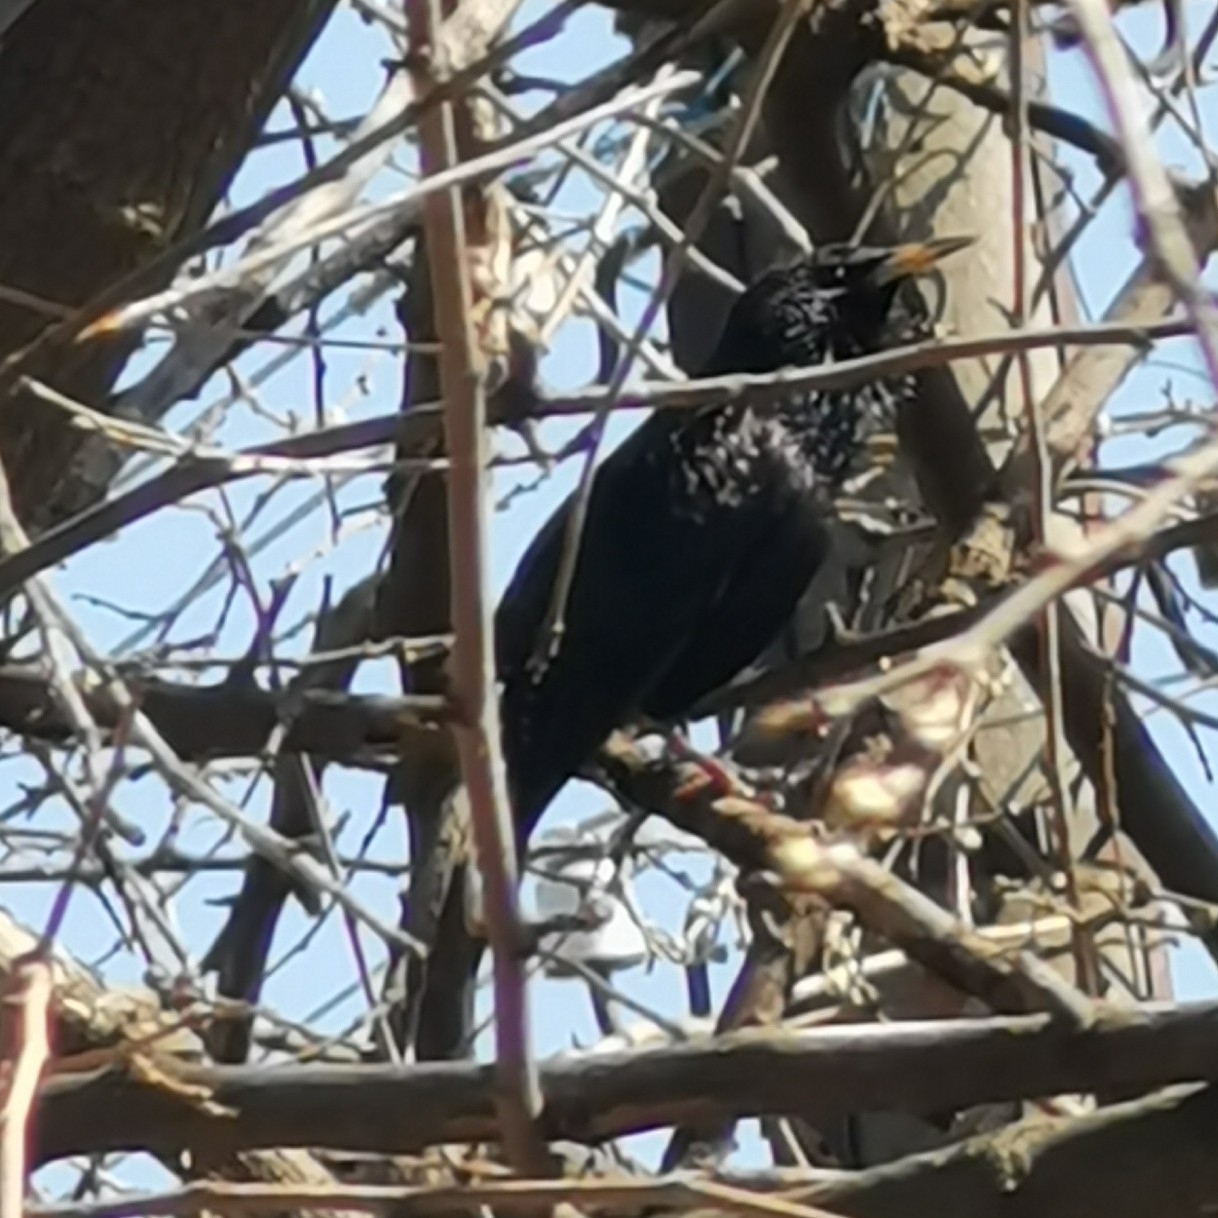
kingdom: Animalia
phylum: Chordata
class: Aves
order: Passeriformes
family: Sturnidae
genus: Sturnus
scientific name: Sturnus vulgaris
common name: Common starling
